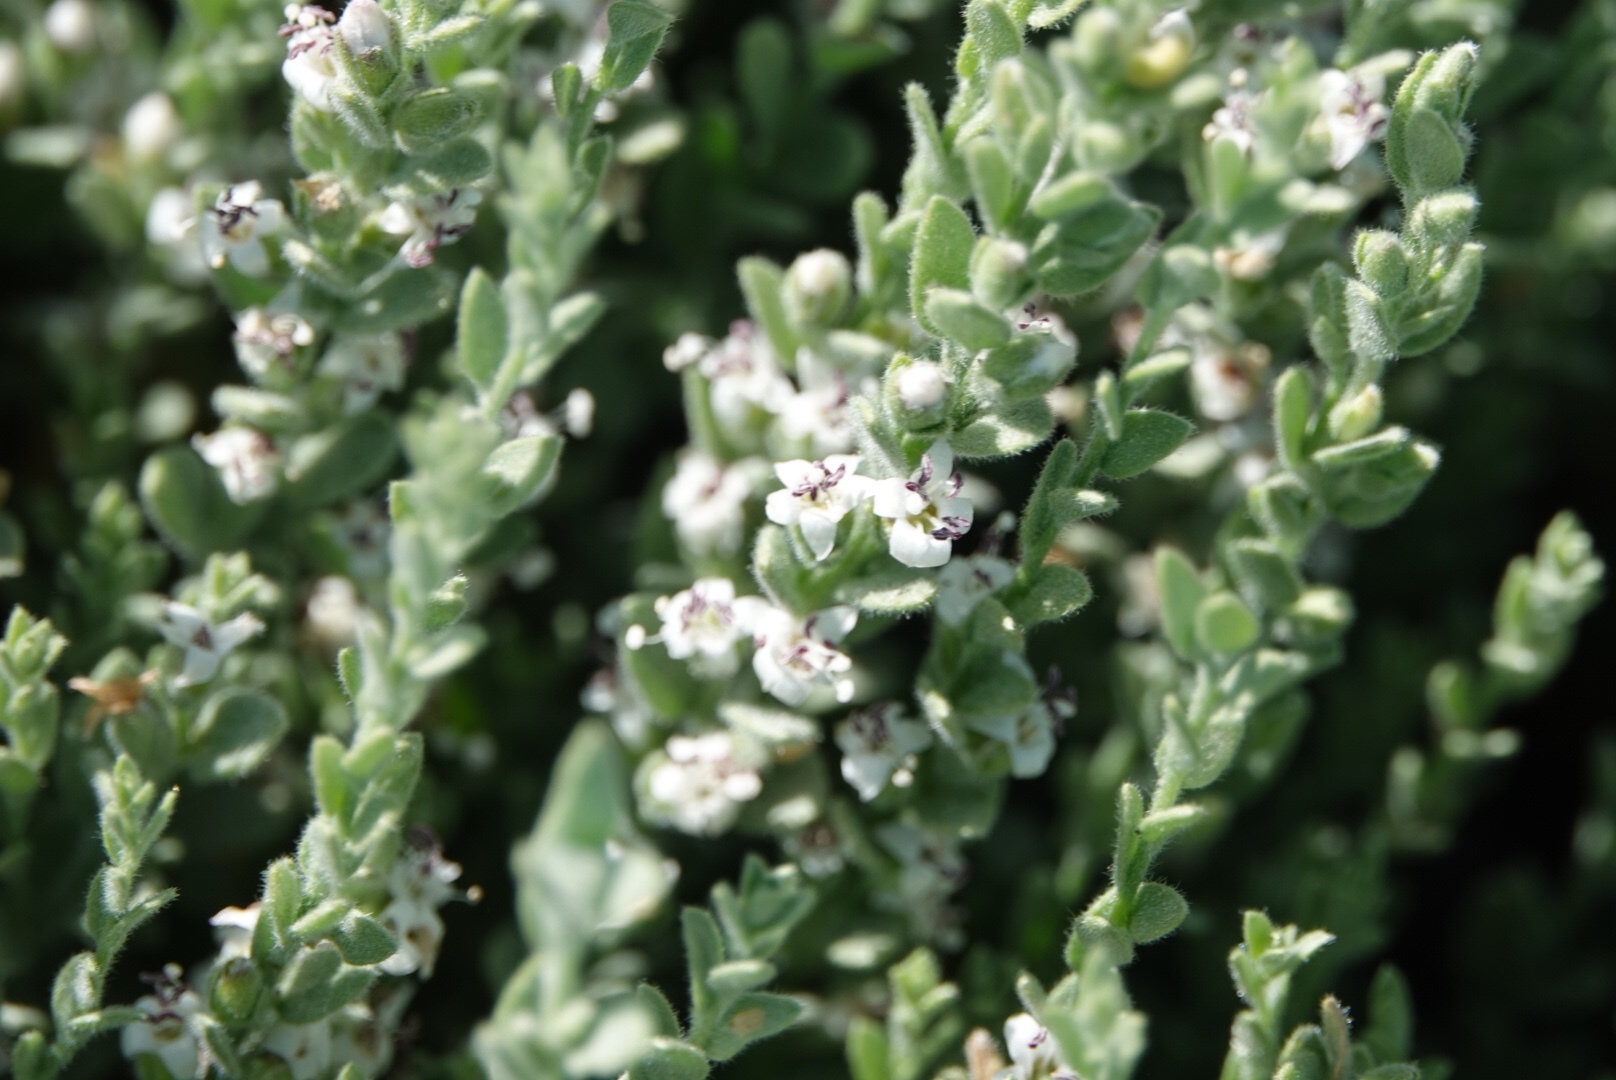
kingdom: Plantae
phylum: Tracheophyta
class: Magnoliopsida
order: Solanales
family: Convolvulaceae
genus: Cressa
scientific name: Cressa truxillensis
